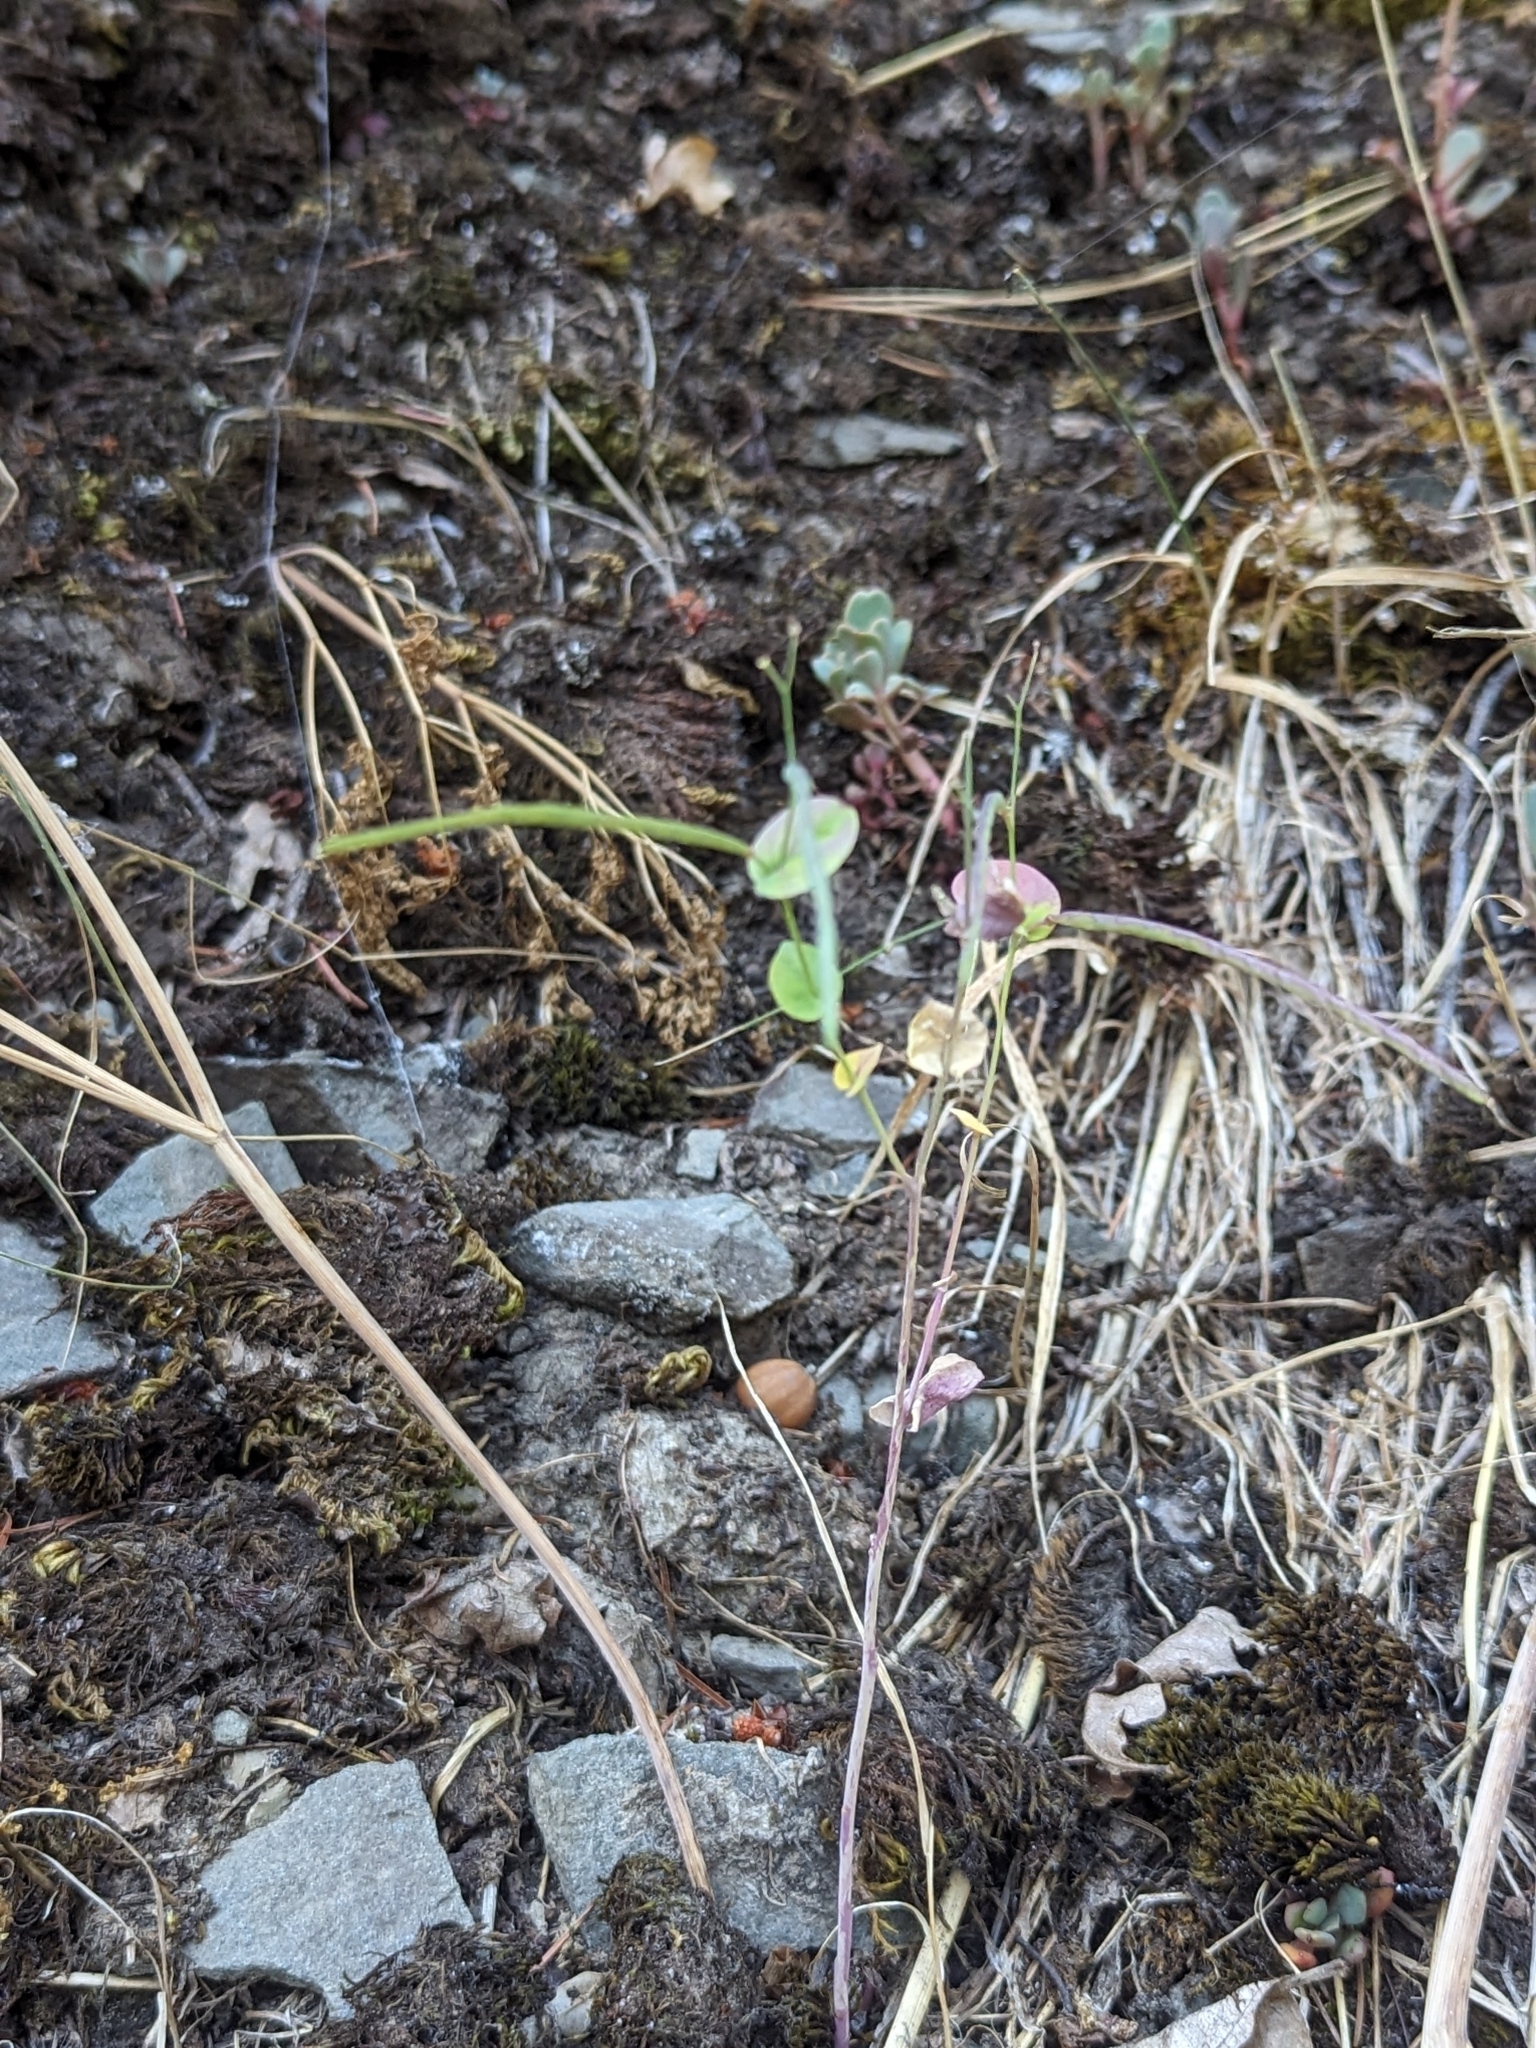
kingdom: Plantae
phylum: Tracheophyta
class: Magnoliopsida
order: Brassicales
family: Brassicaceae
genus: Streptanthus
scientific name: Streptanthus tortuosus
